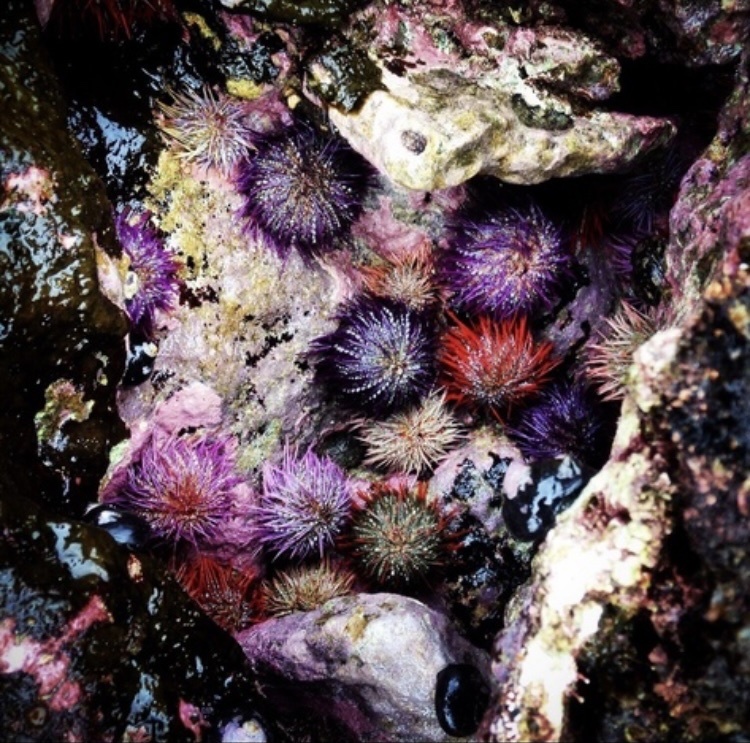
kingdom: Animalia
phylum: Echinodermata
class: Echinoidea
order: Camarodonta
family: Parechinidae
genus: Parechinus
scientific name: Parechinus angulosus
